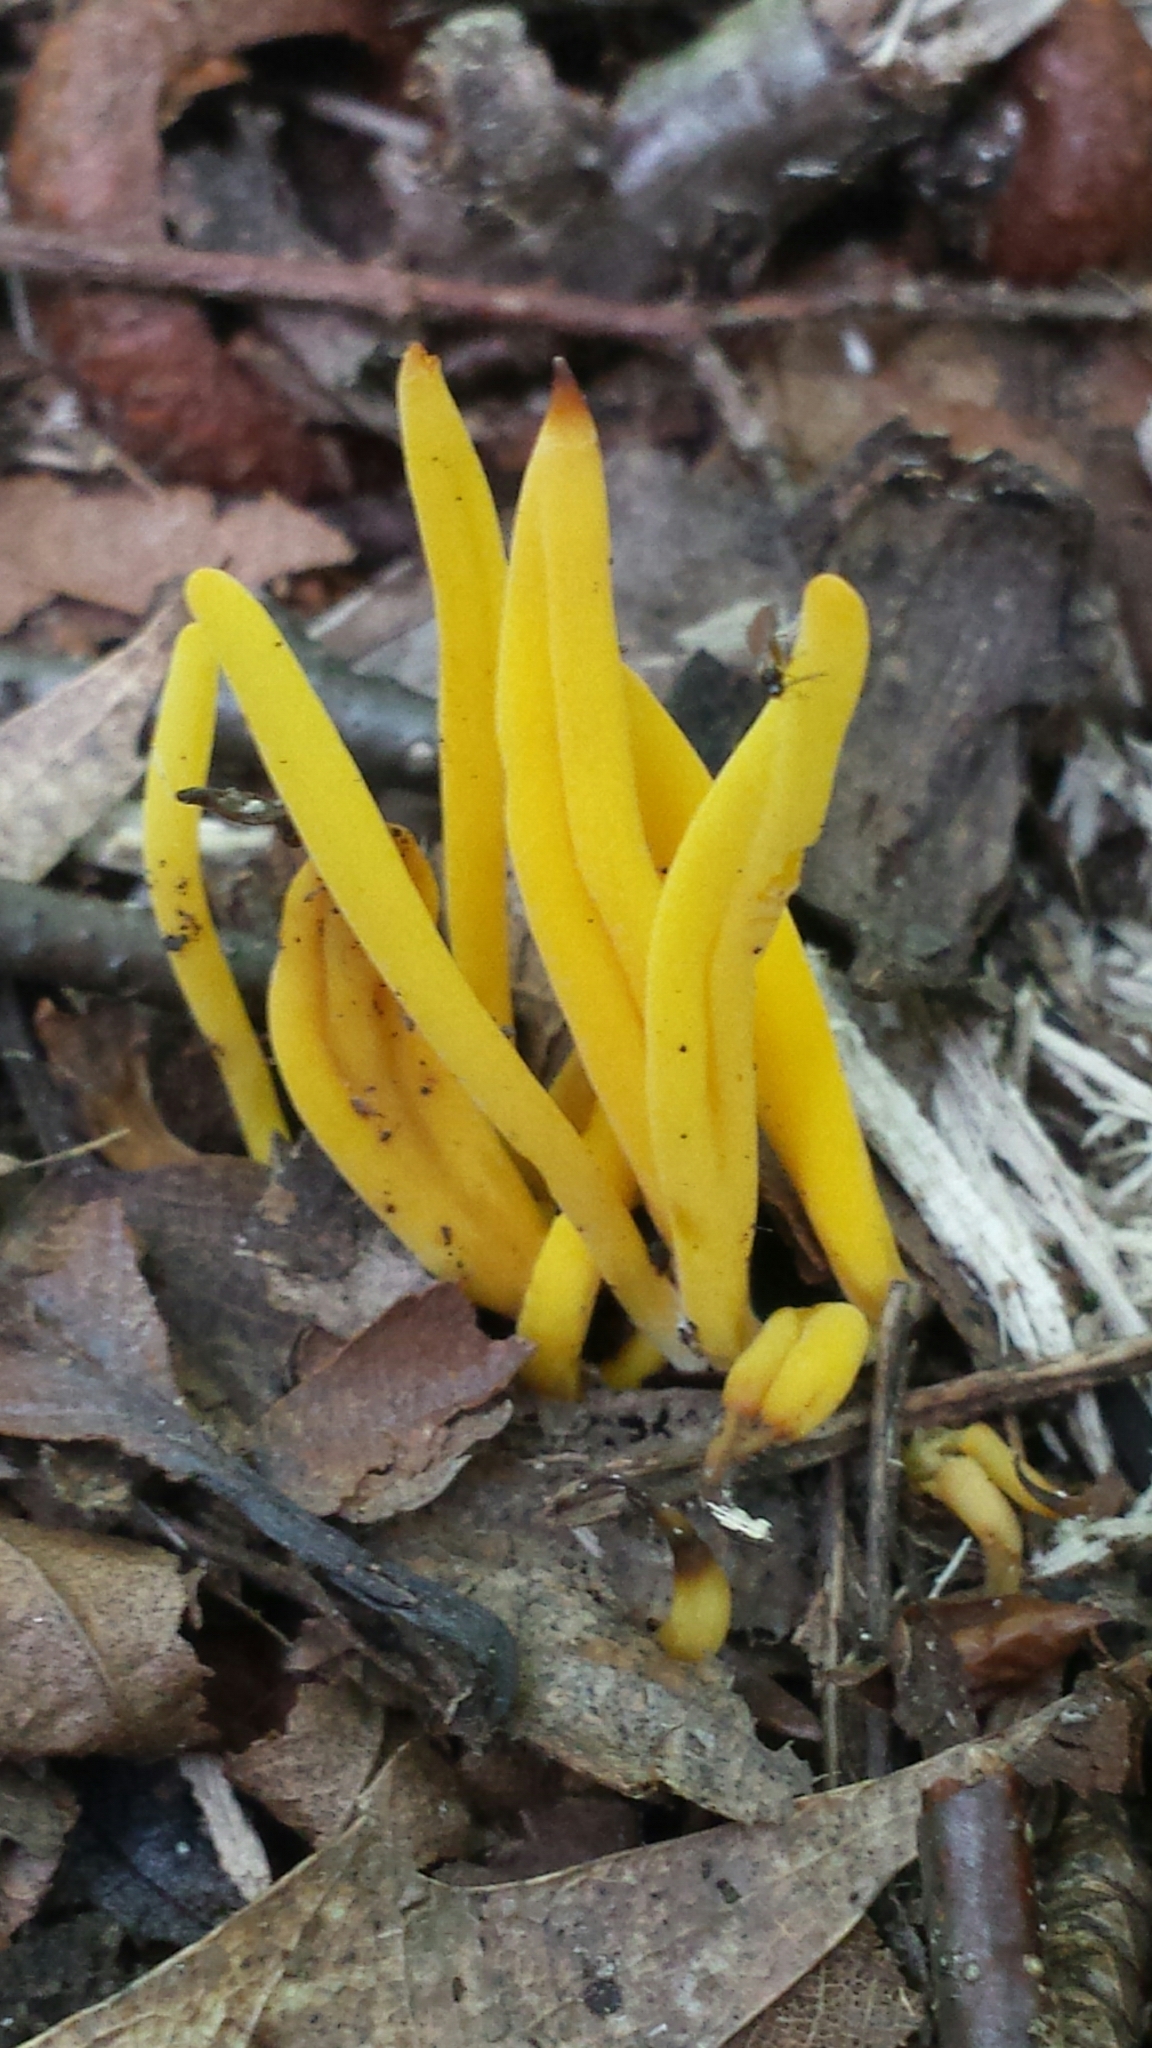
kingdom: Fungi
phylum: Basidiomycota
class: Agaricomycetes
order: Agaricales
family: Clavariaceae
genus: Clavulinopsis
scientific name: Clavulinopsis fusiformis
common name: Golden spindles
